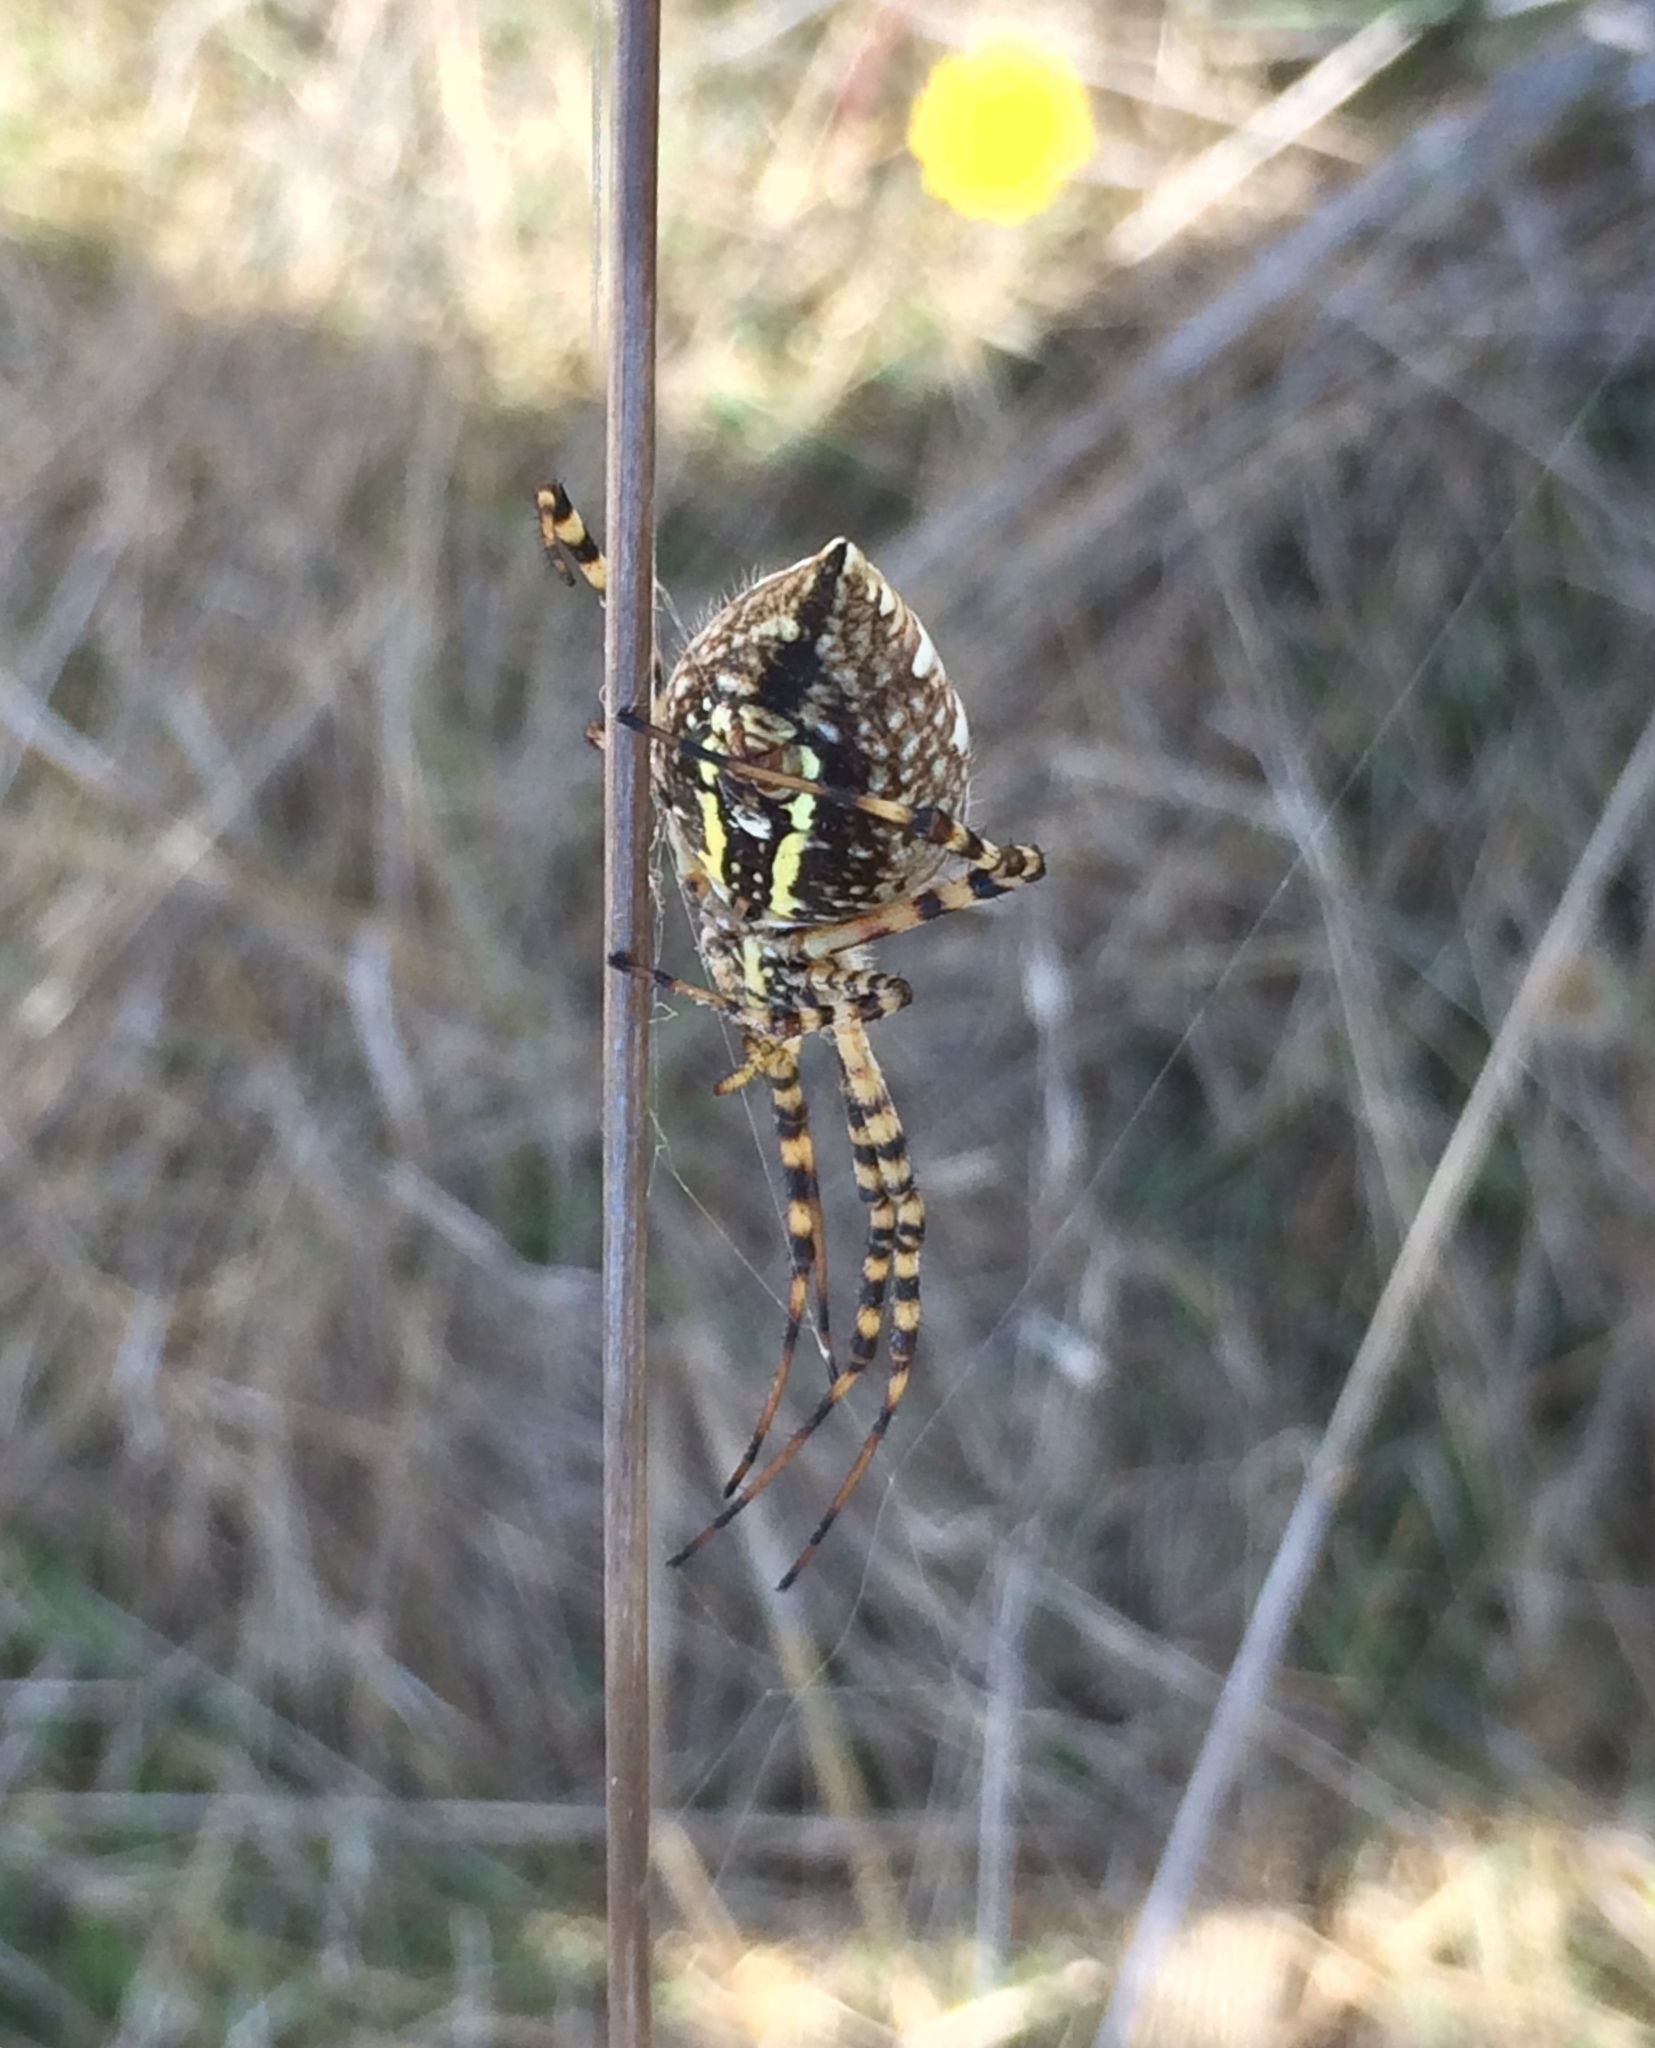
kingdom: Animalia
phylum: Arthropoda
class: Arachnida
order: Araneae
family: Araneidae
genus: Argiope
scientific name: Argiope trifasciata
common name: Banded garden spider
